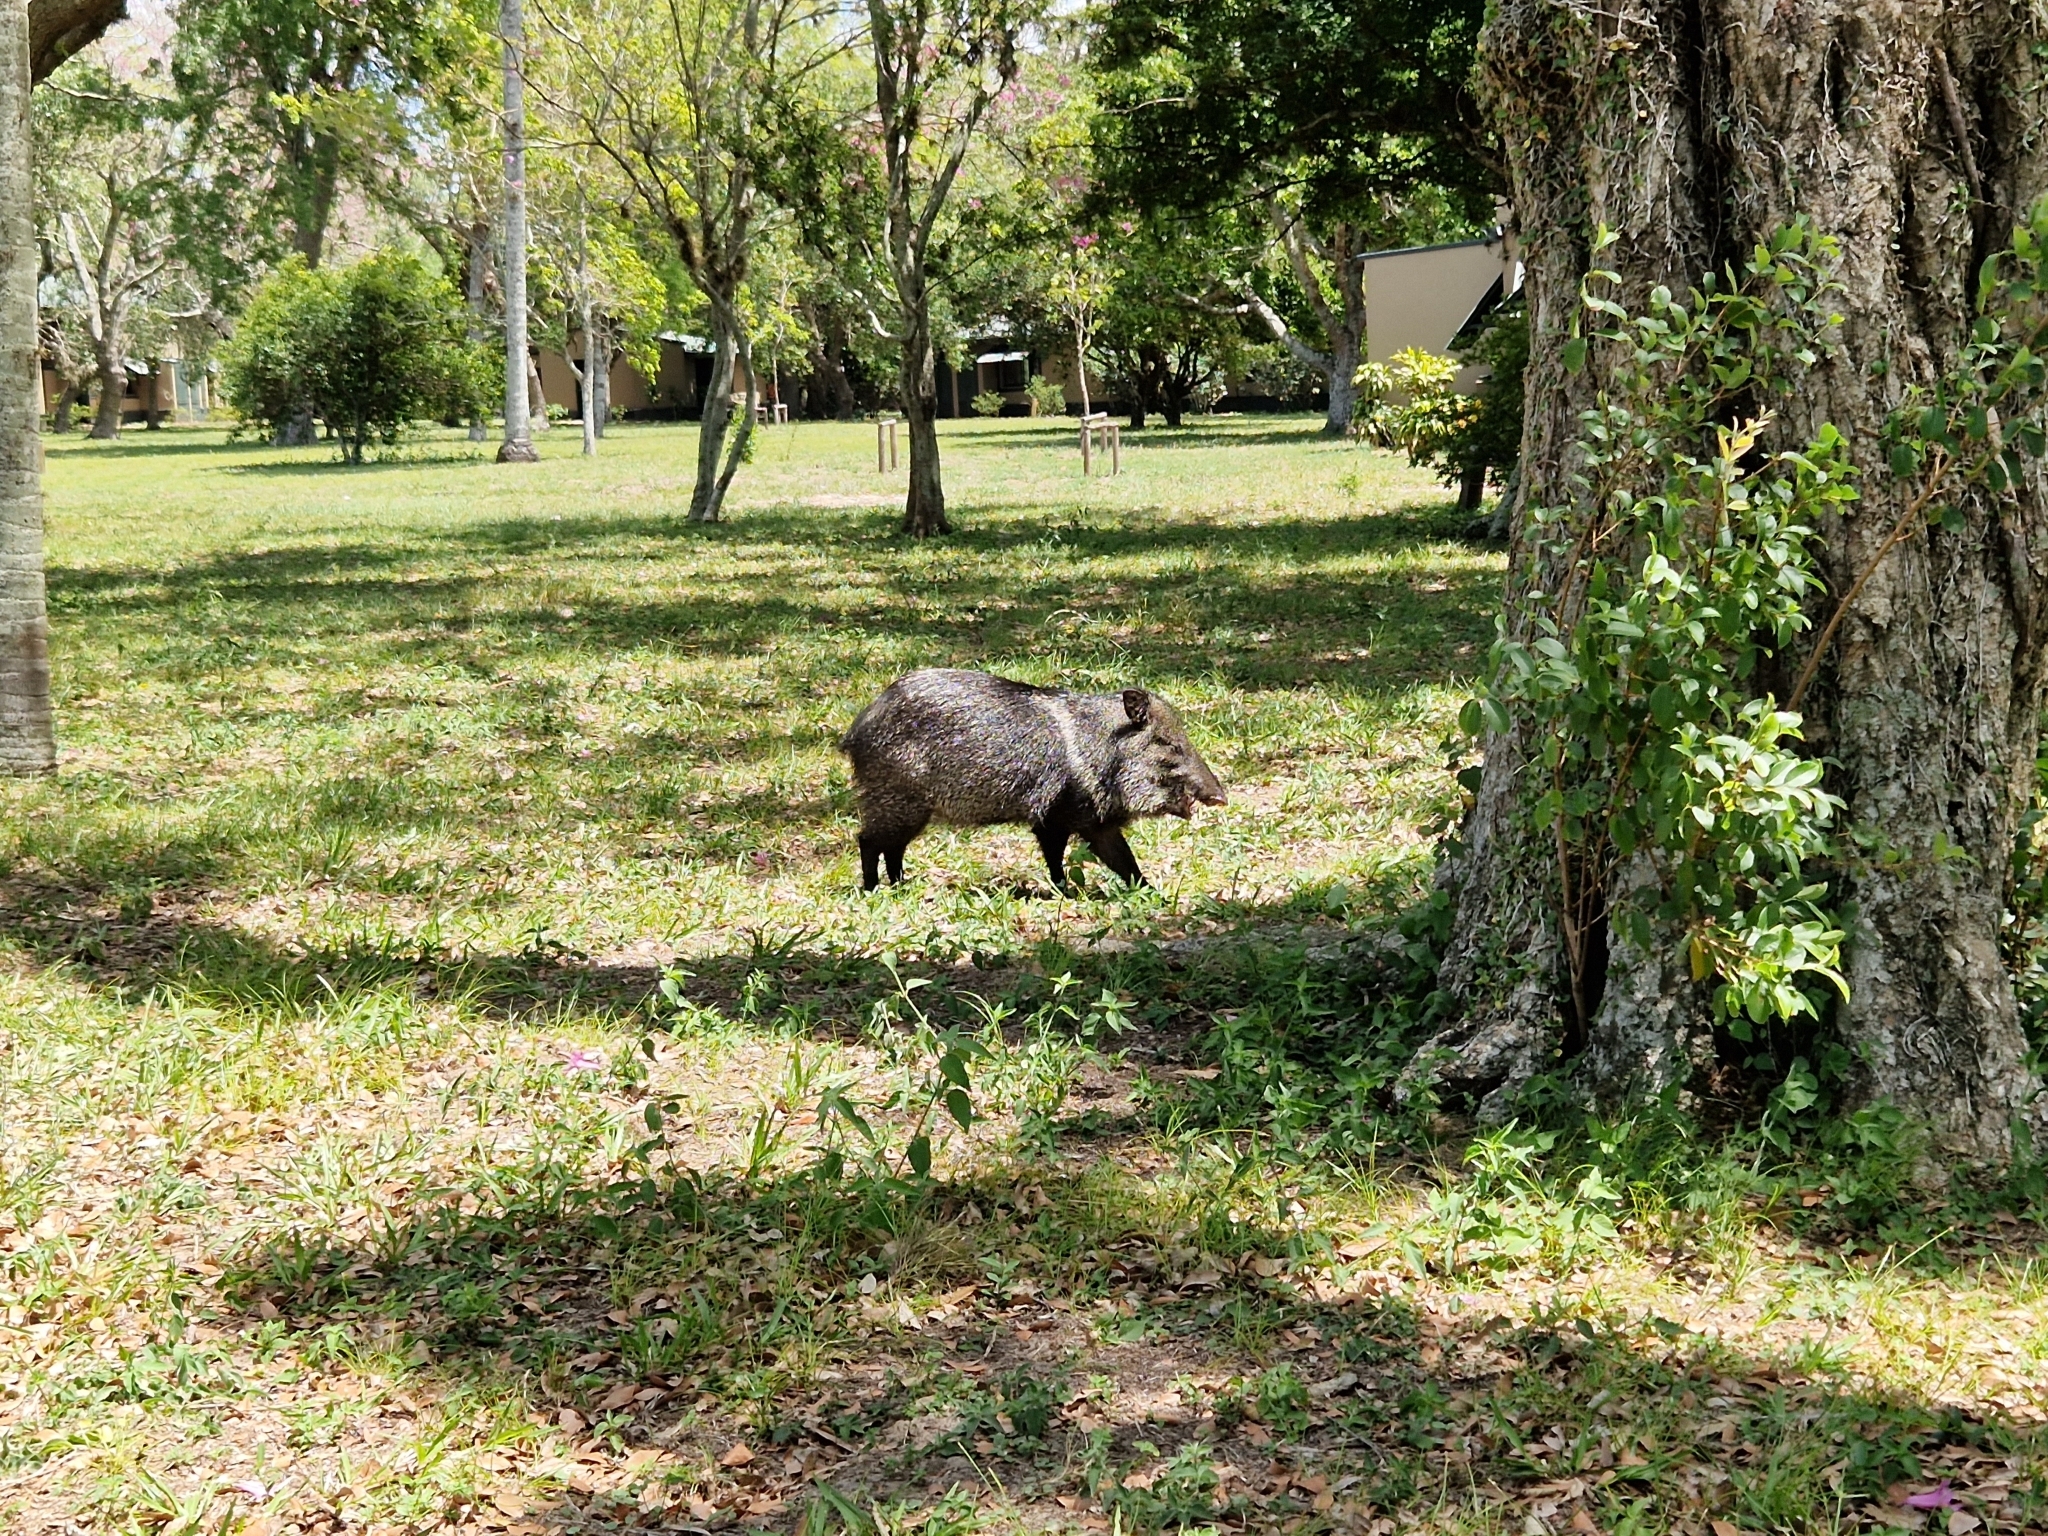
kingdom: Animalia
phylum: Chordata
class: Mammalia
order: Artiodactyla
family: Tayassuidae
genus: Pecari
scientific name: Pecari tajacu
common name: Collared peccary
